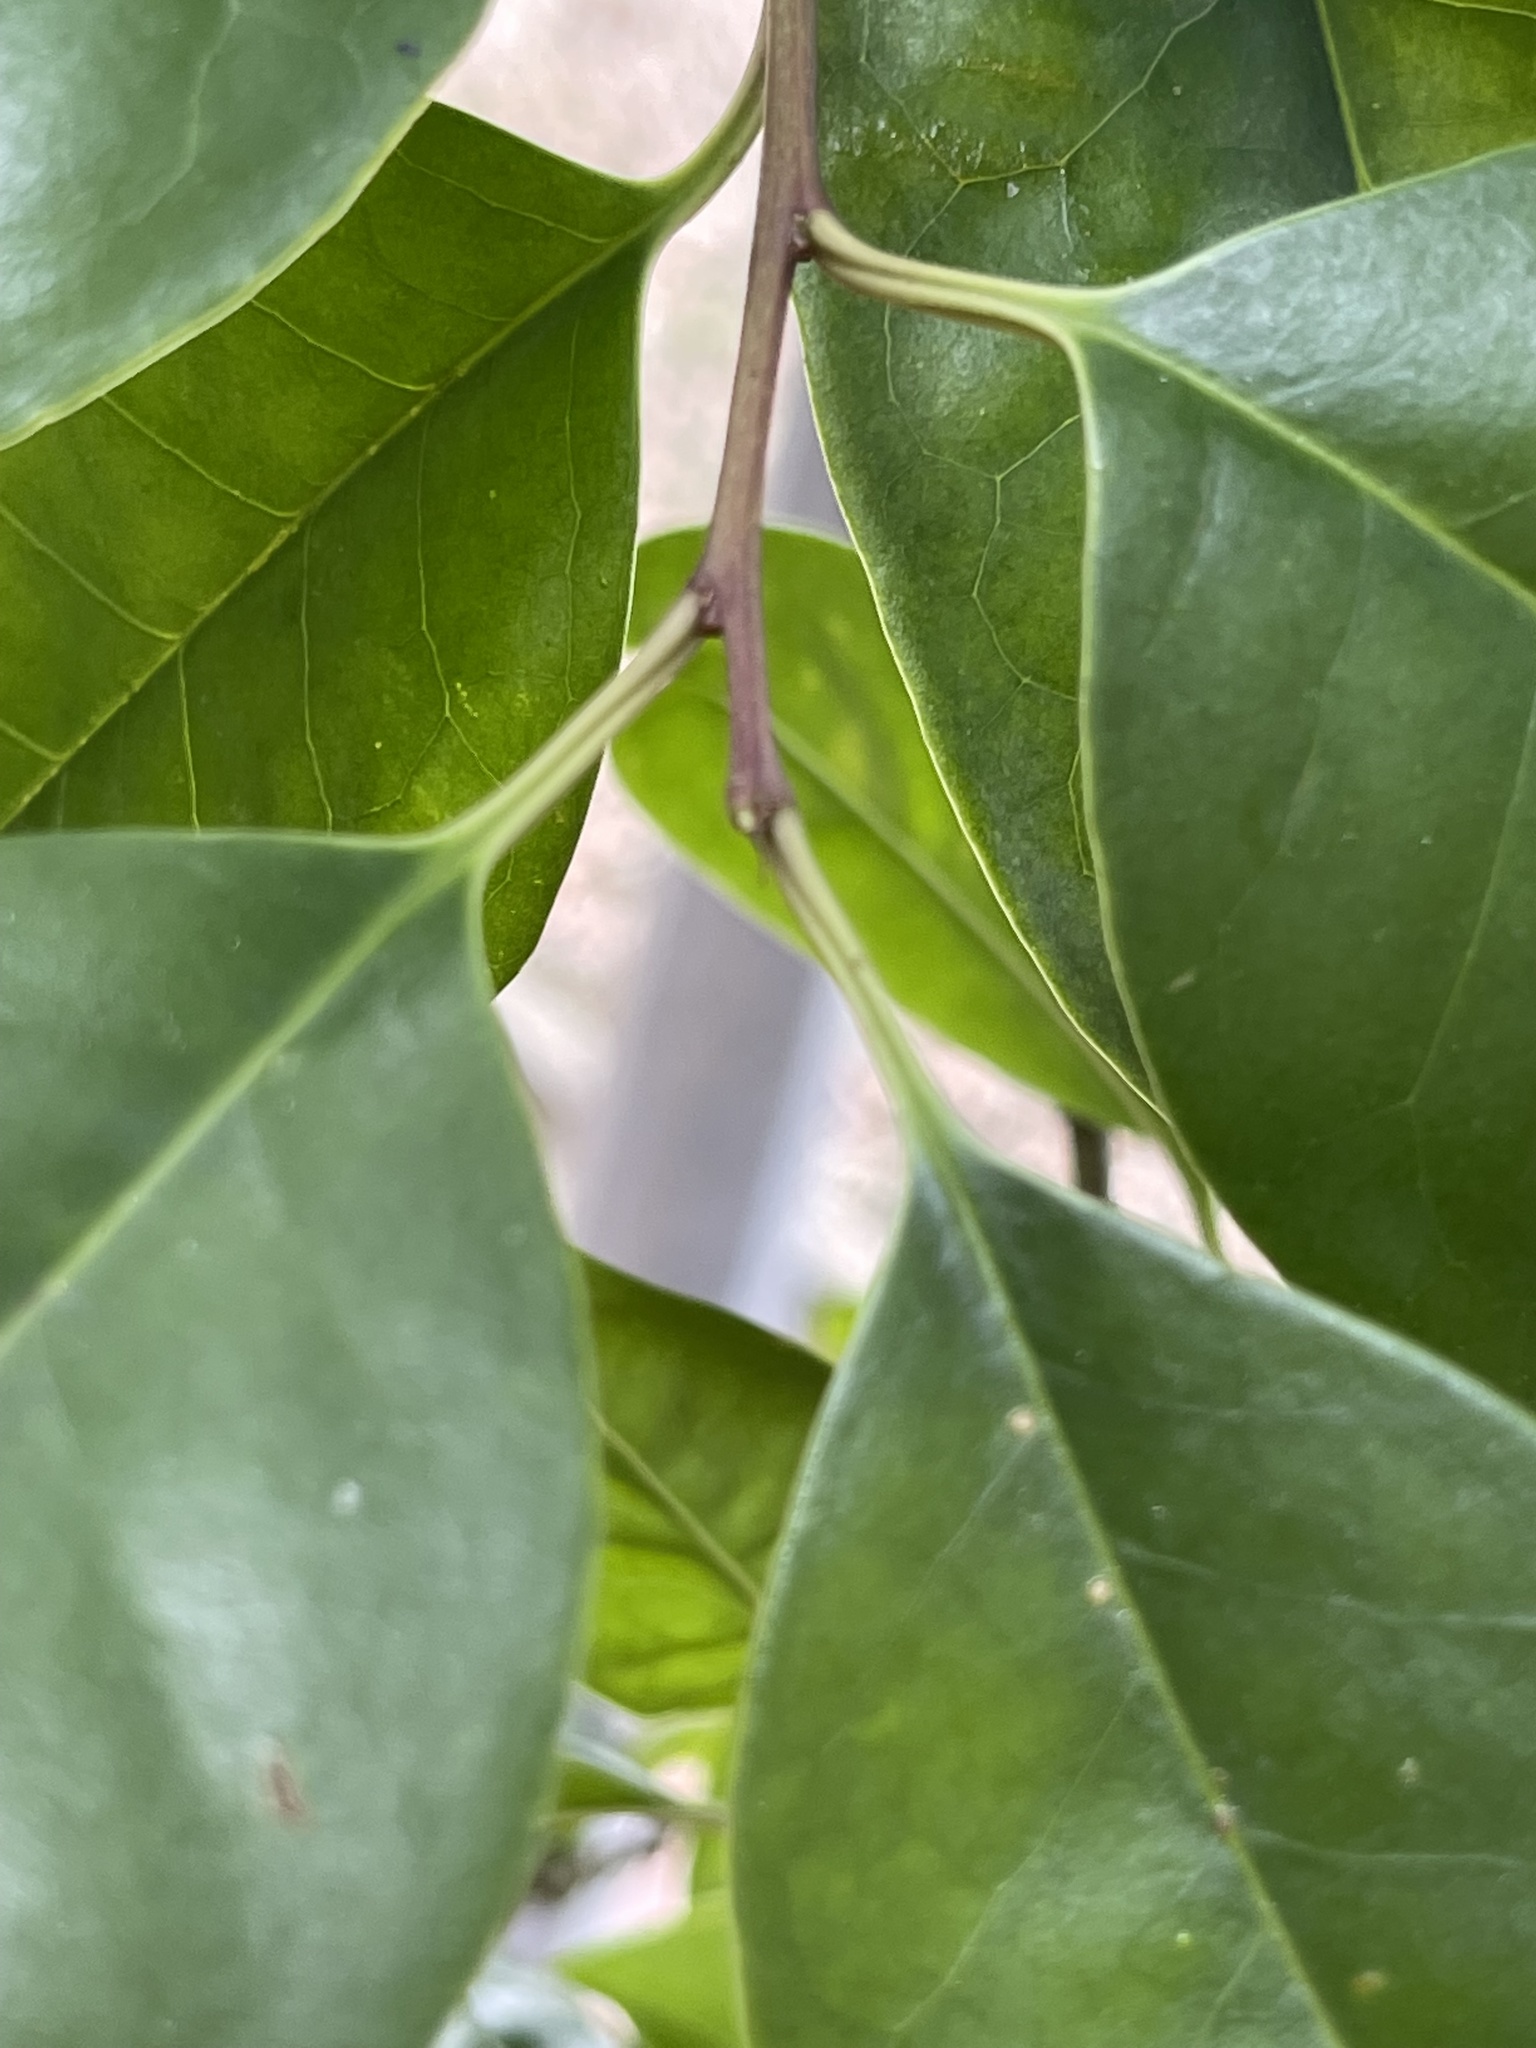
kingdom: Plantae
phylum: Tracheophyta
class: Magnoliopsida
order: Aquifoliales
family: Aquifoliaceae
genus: Ilex
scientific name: Ilex rotunda
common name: Kurogane holly
